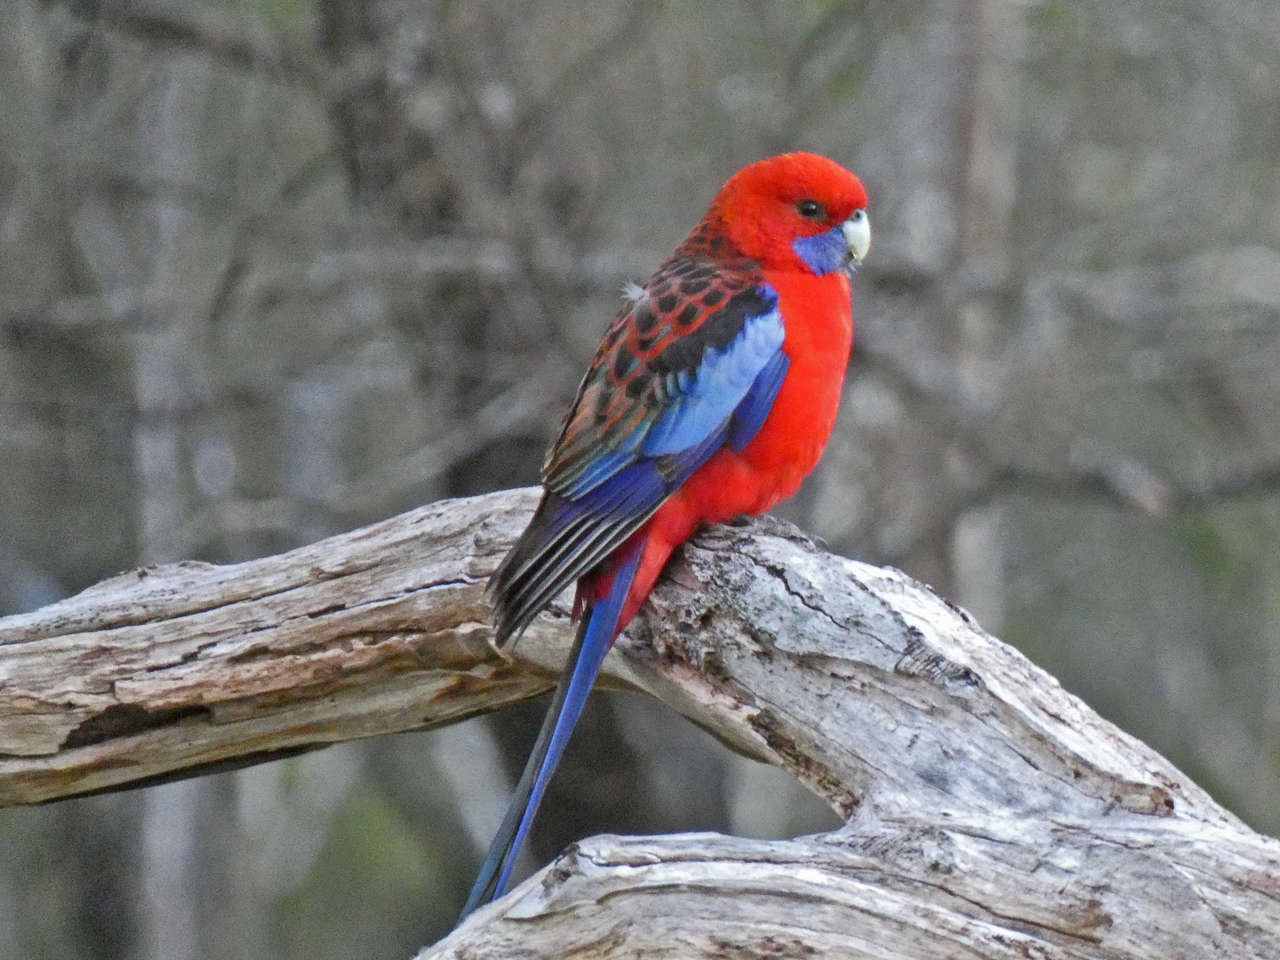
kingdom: Animalia
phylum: Chordata
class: Aves
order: Psittaciformes
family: Psittacidae
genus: Platycercus
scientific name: Platycercus elegans
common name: Crimson rosella
